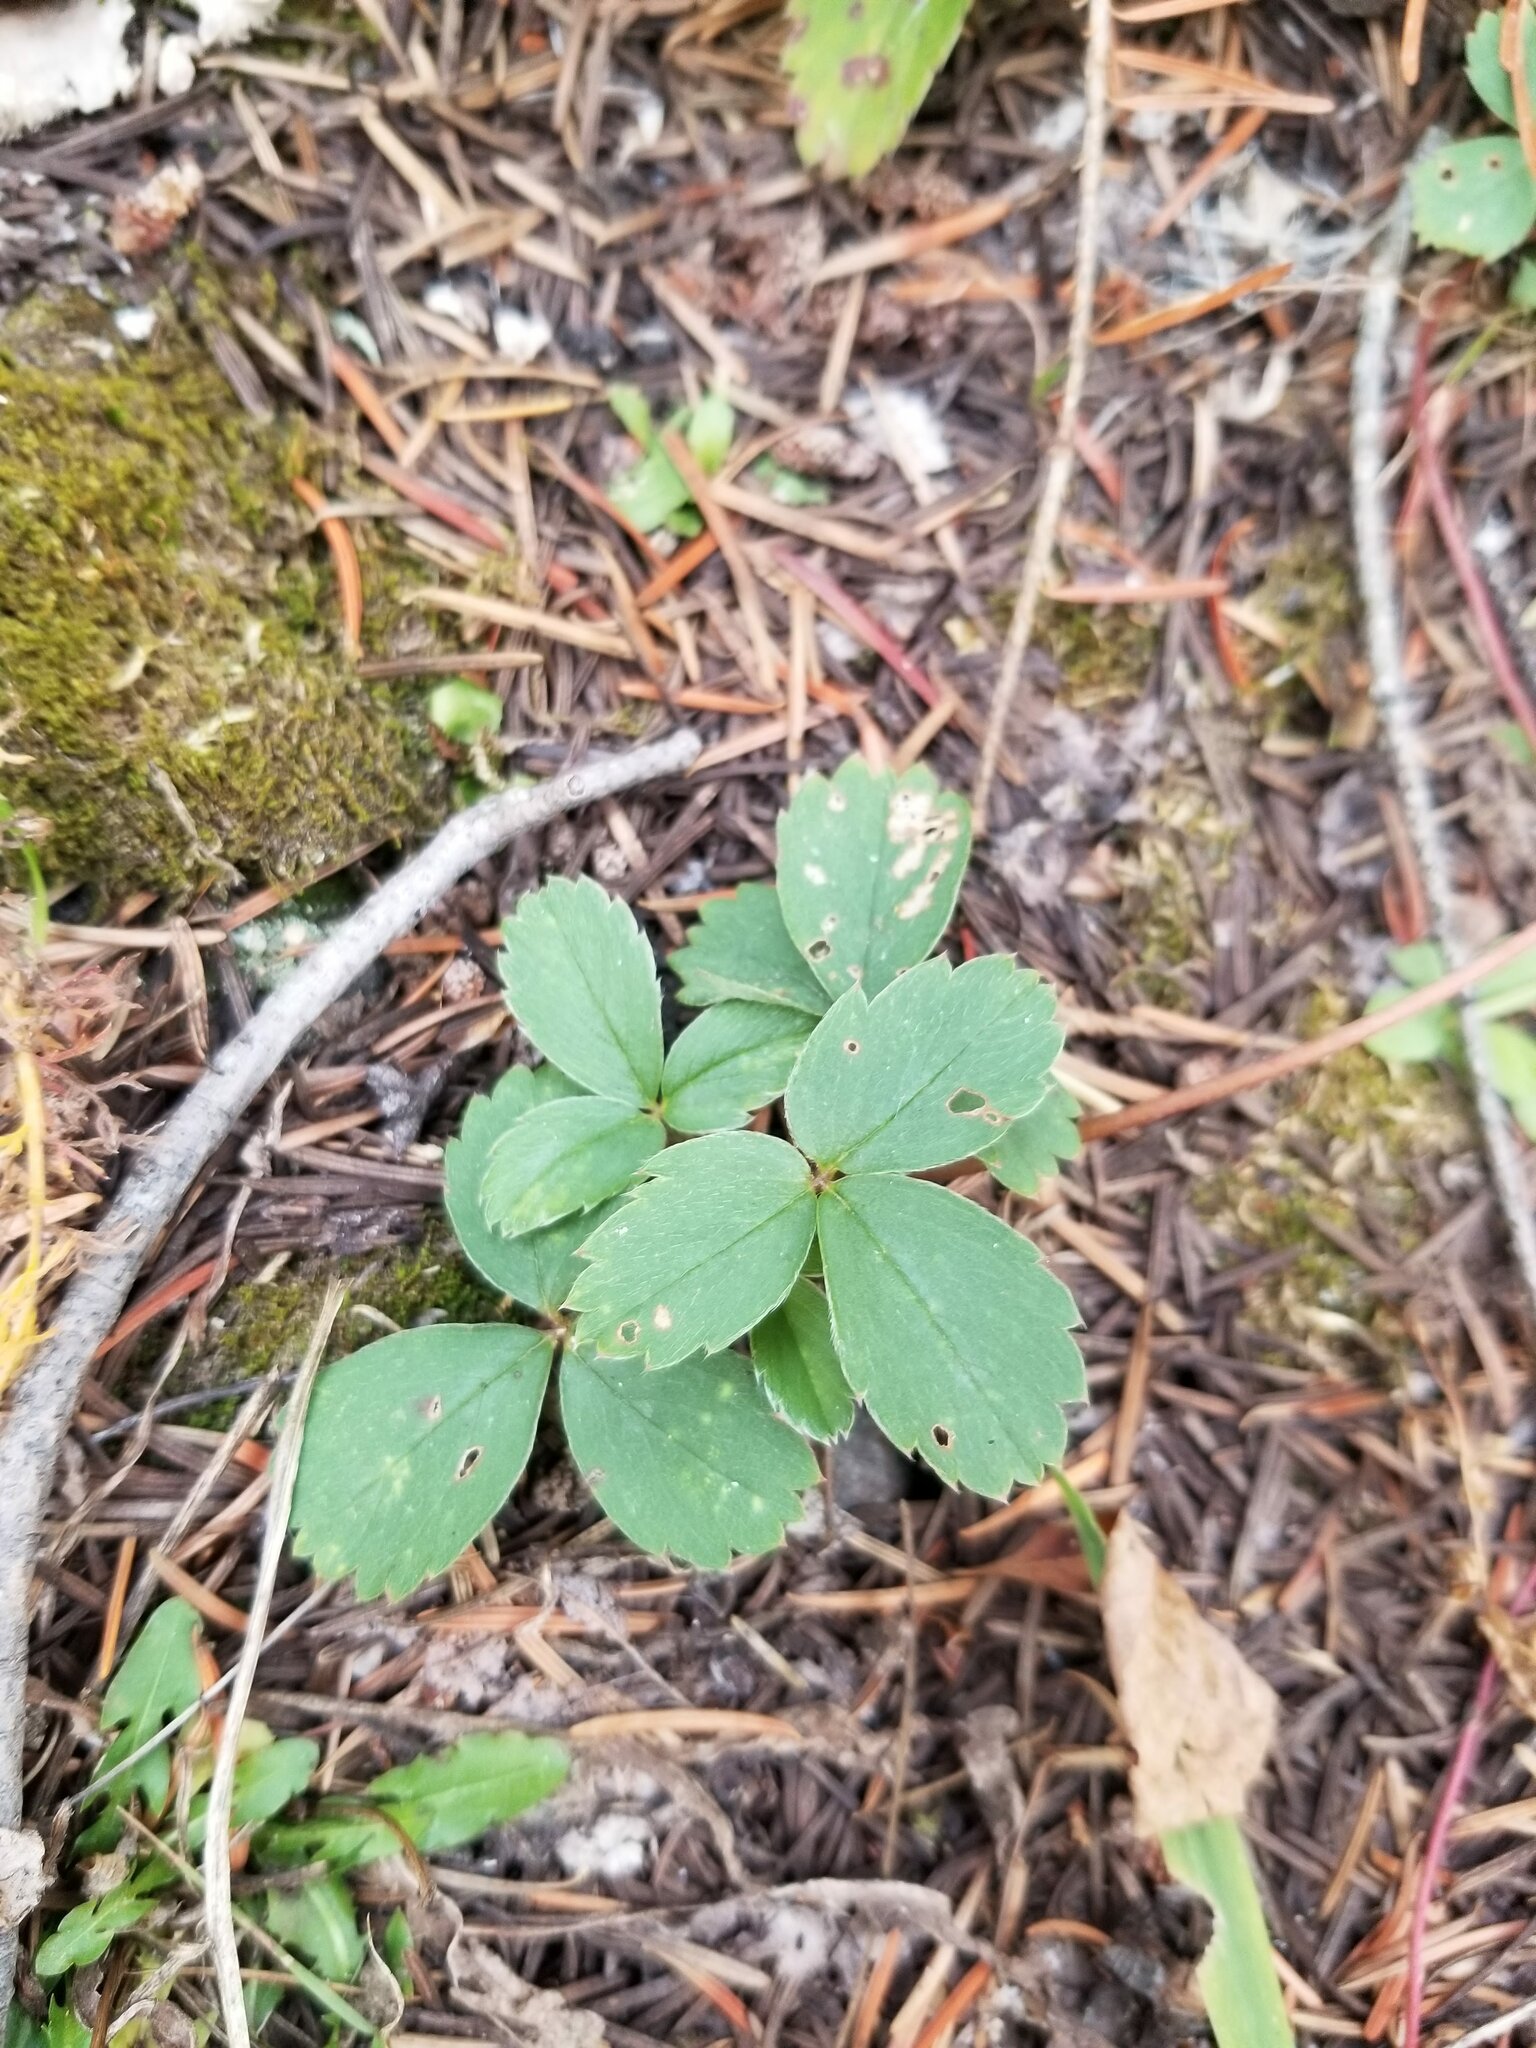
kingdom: Plantae
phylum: Tracheophyta
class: Magnoliopsida
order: Rosales
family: Rosaceae
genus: Fragaria
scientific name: Fragaria virginiana
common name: Thickleaved wild strawberry
